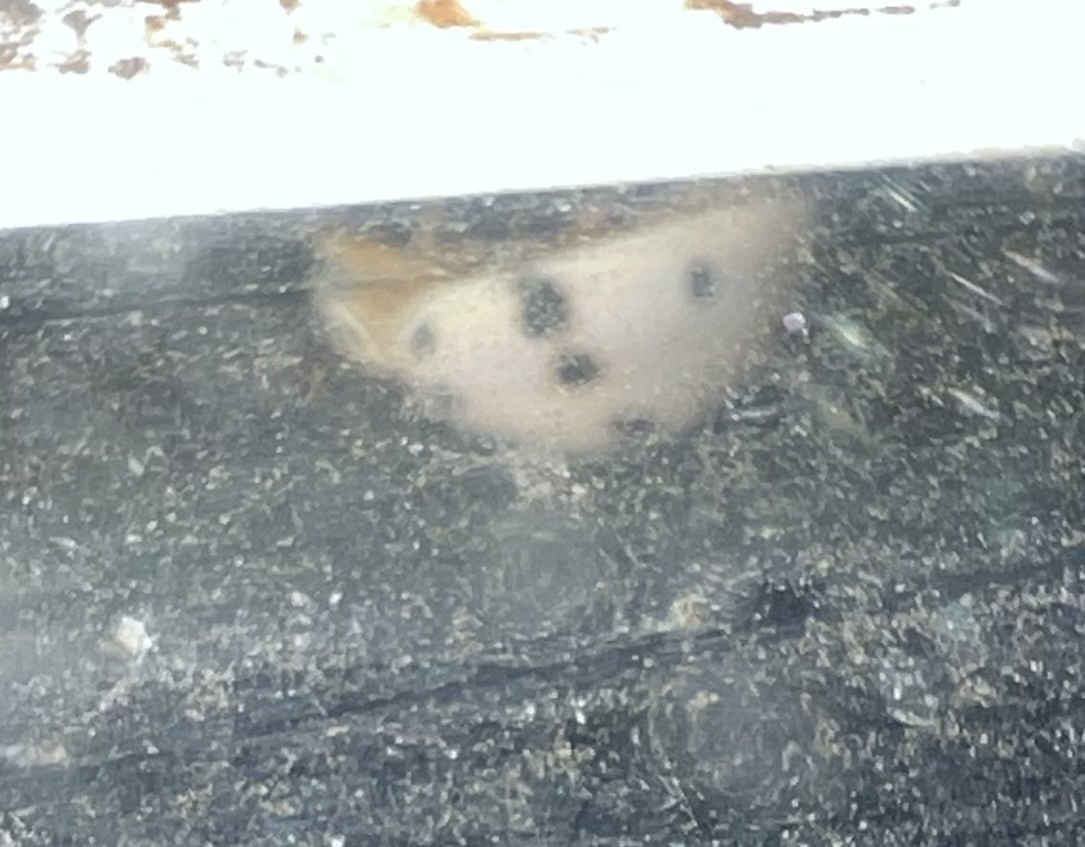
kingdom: Animalia
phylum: Arthropoda
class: Insecta
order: Coleoptera
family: Coccinellidae
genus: Olla
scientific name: Olla v-nigrum
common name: Ashy gray lady beetle
